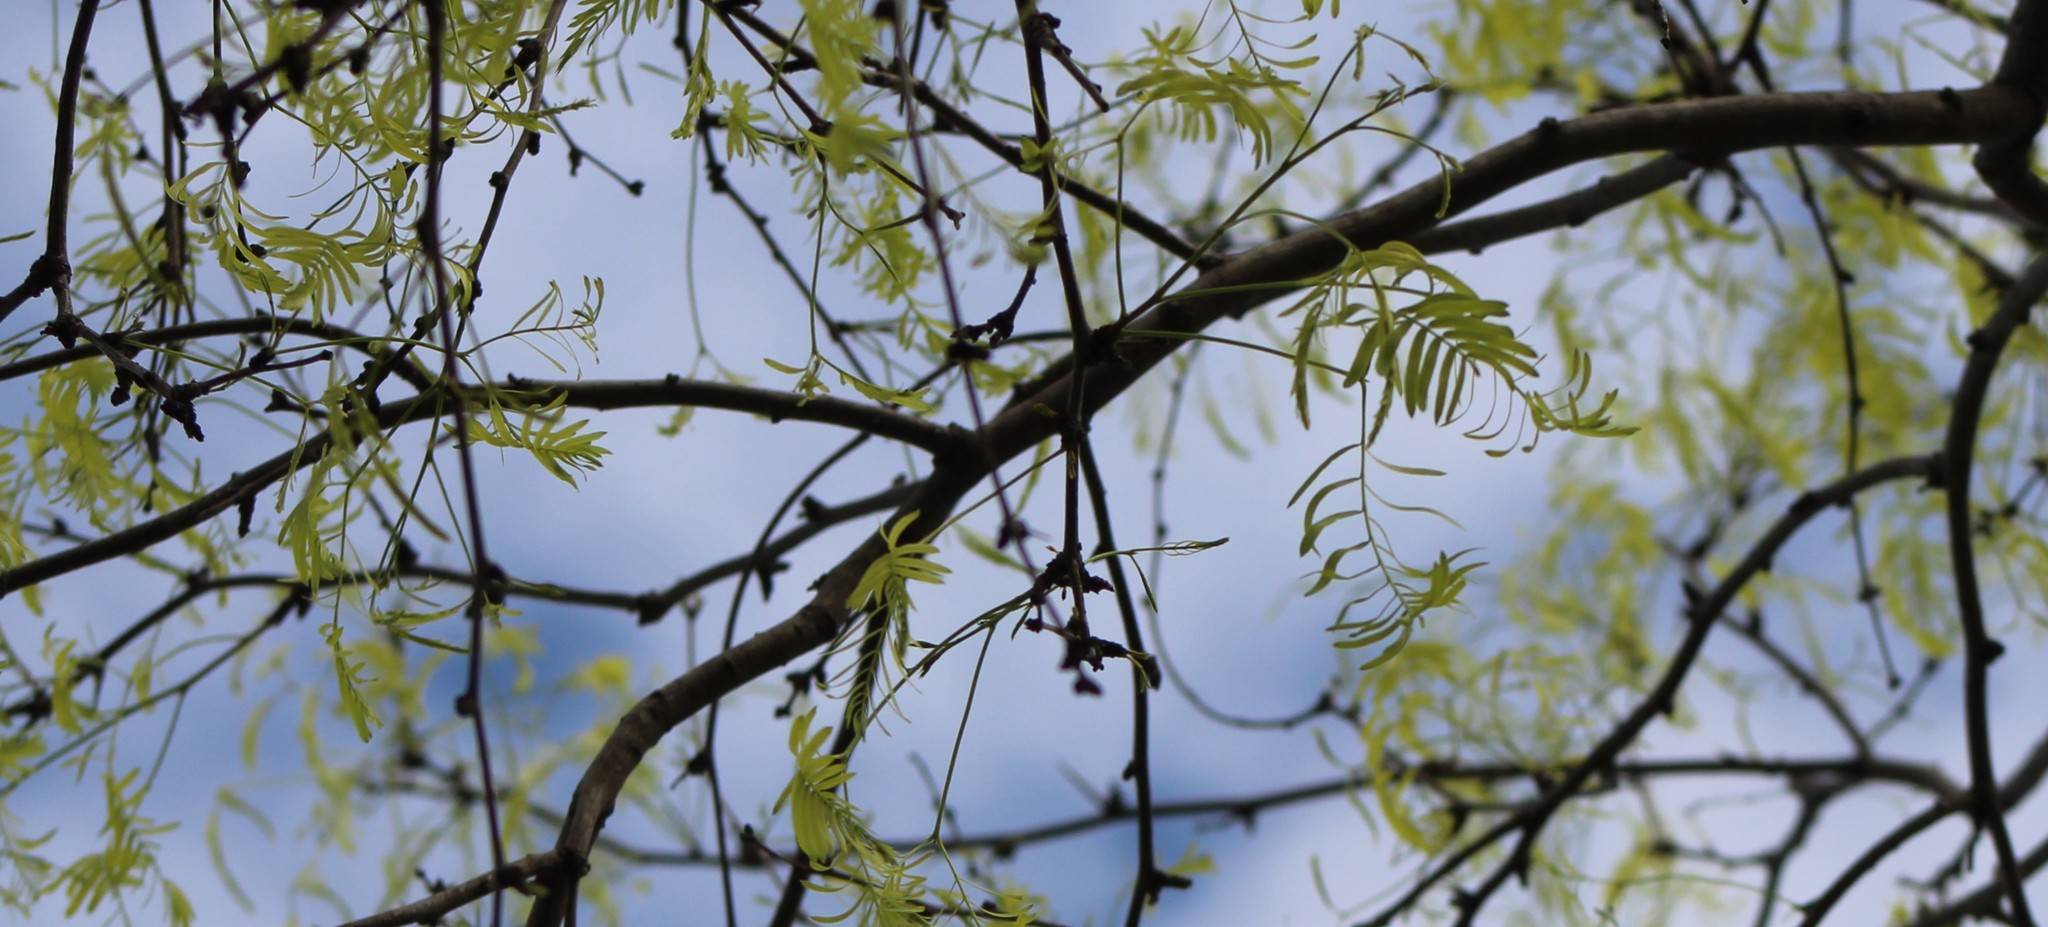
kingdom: Plantae
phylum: Tracheophyta
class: Magnoliopsida
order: Fabales
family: Fabaceae
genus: Prosopis
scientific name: Prosopis glandulosa
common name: Honey mesquite
